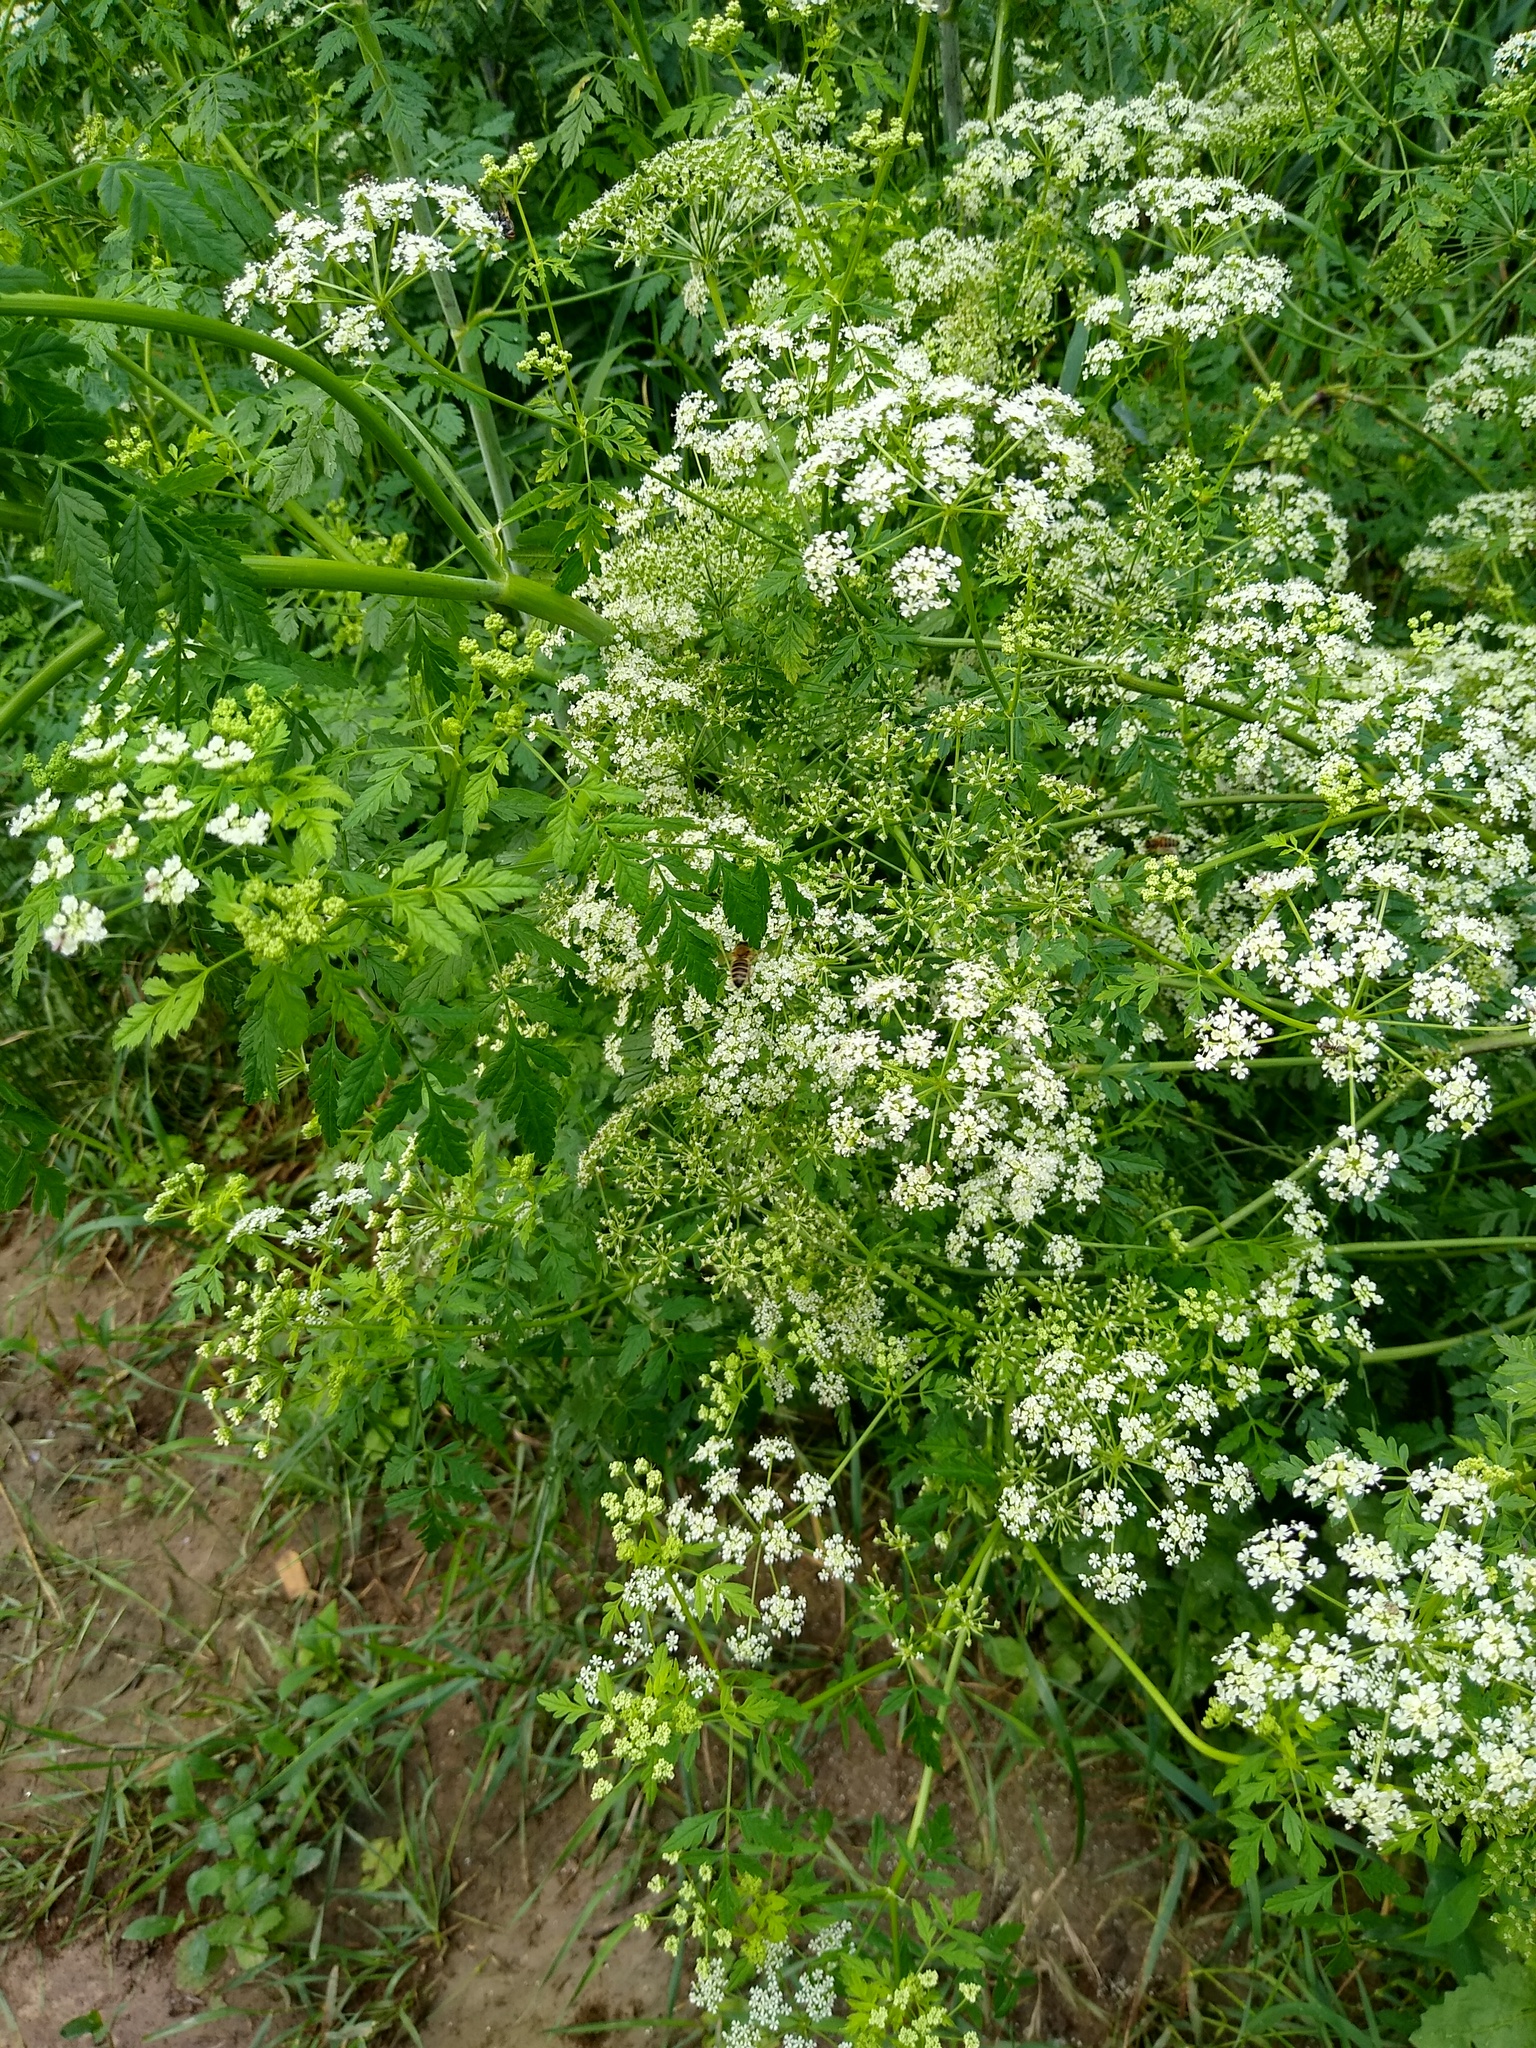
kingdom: Plantae
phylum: Tracheophyta
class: Magnoliopsida
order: Apiales
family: Apiaceae
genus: Anthriscus
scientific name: Anthriscus sylvestris
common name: Cow parsley
